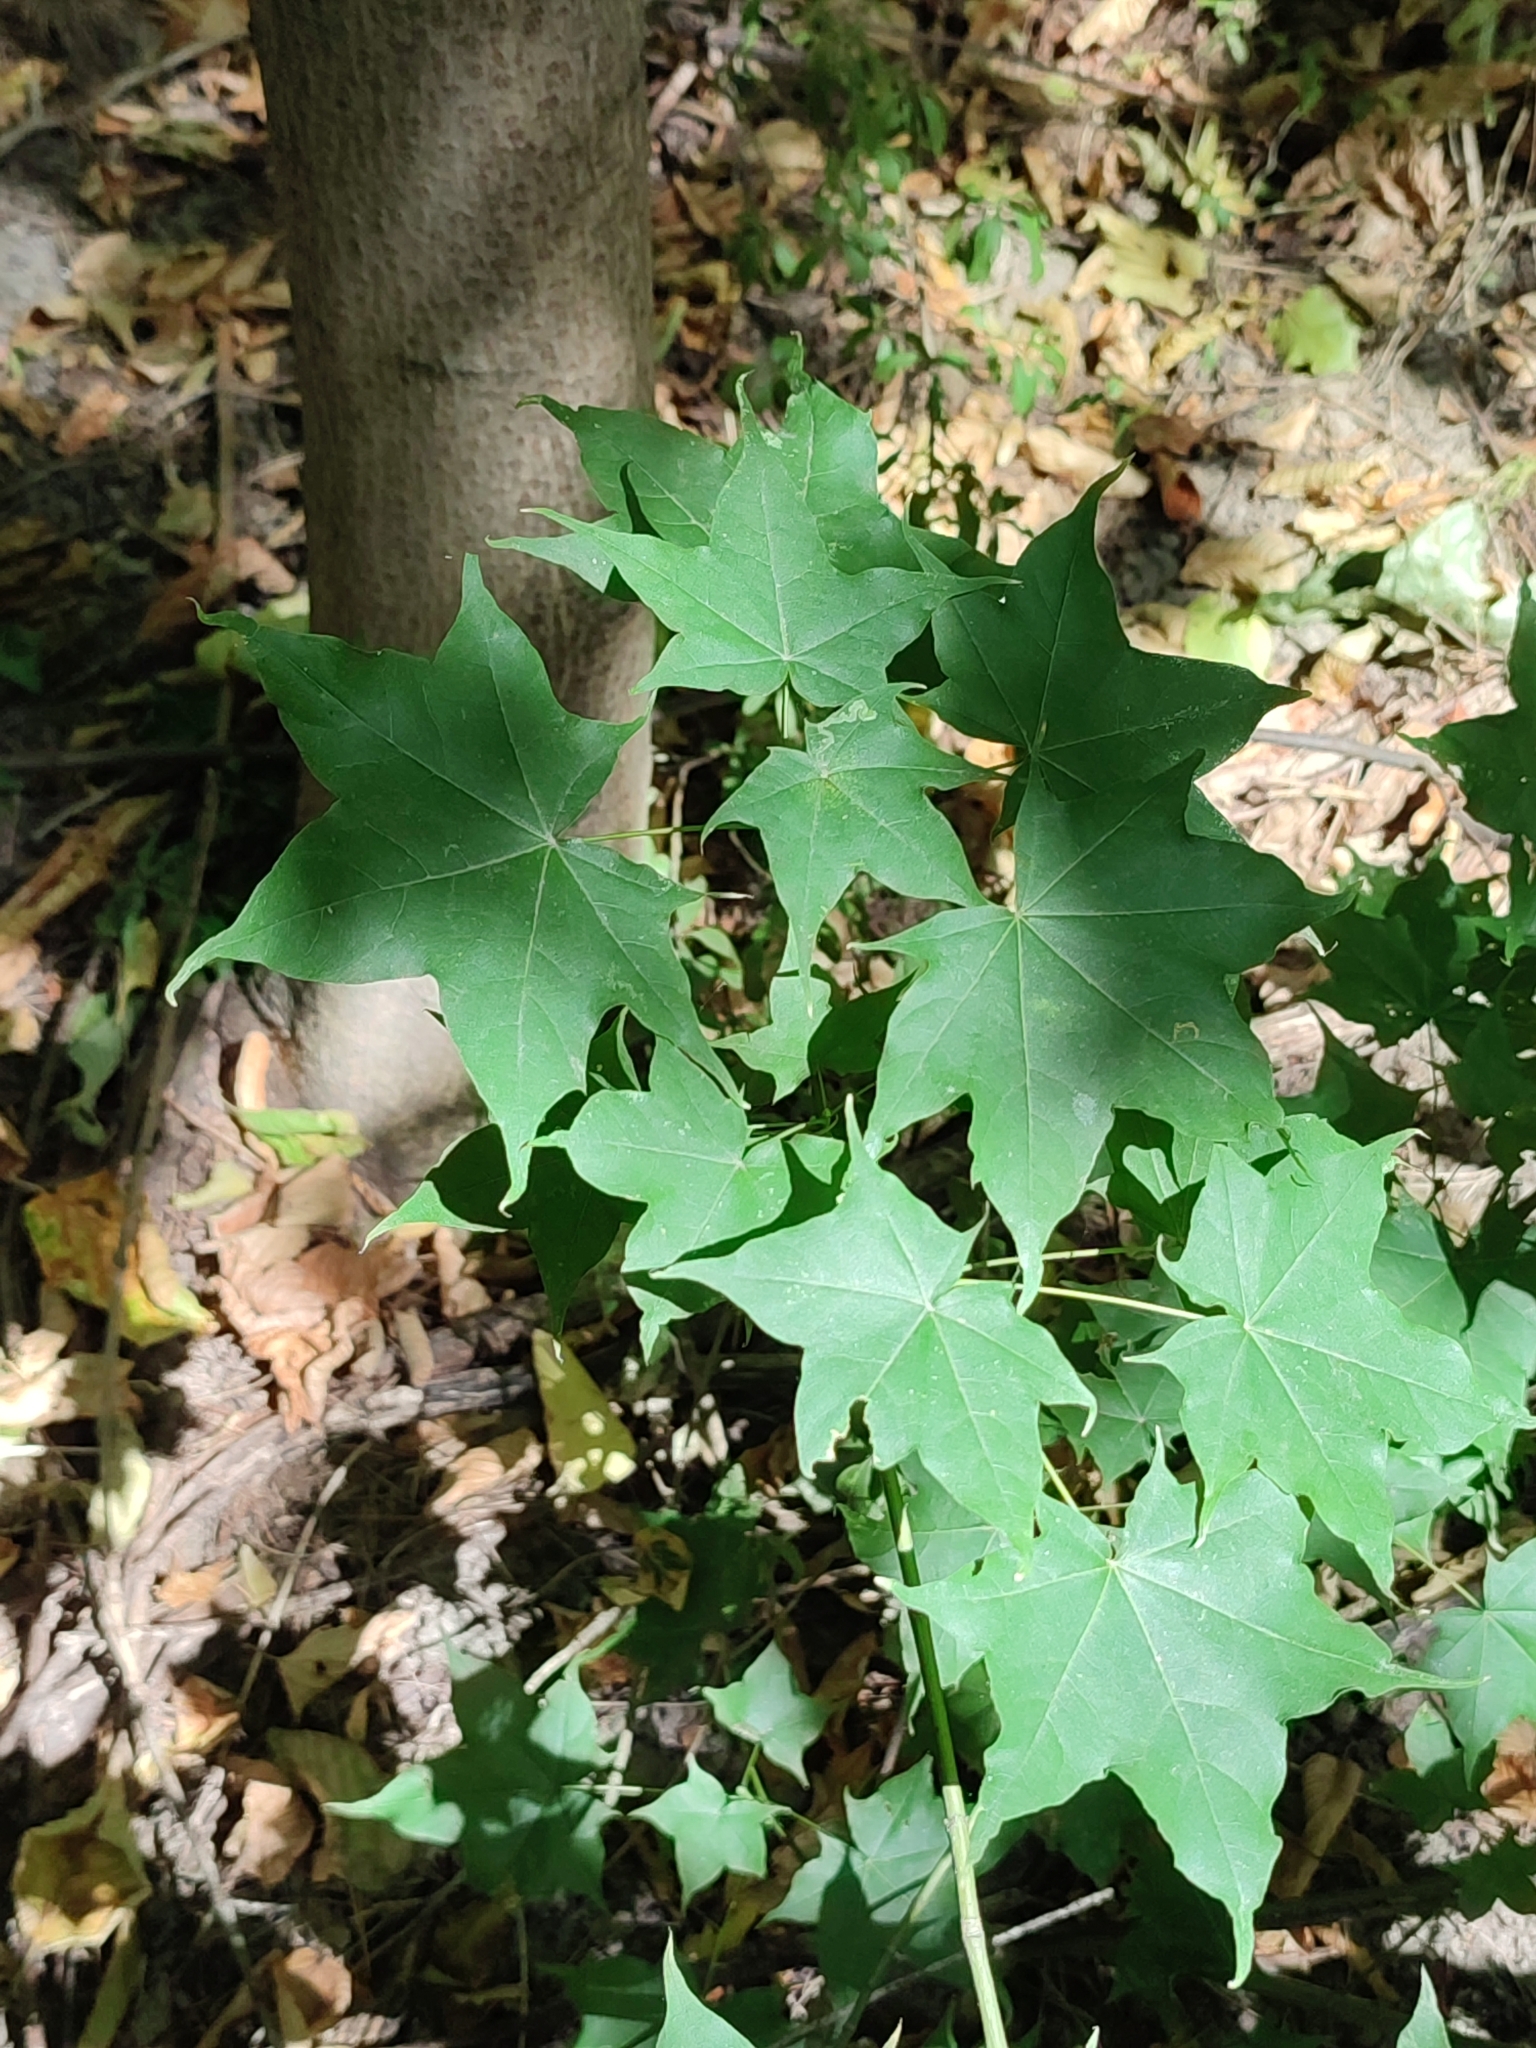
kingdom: Plantae
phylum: Tracheophyta
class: Magnoliopsida
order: Sapindales
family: Sapindaceae
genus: Acer
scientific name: Acer cappadocicum
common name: Cappadocian maple
